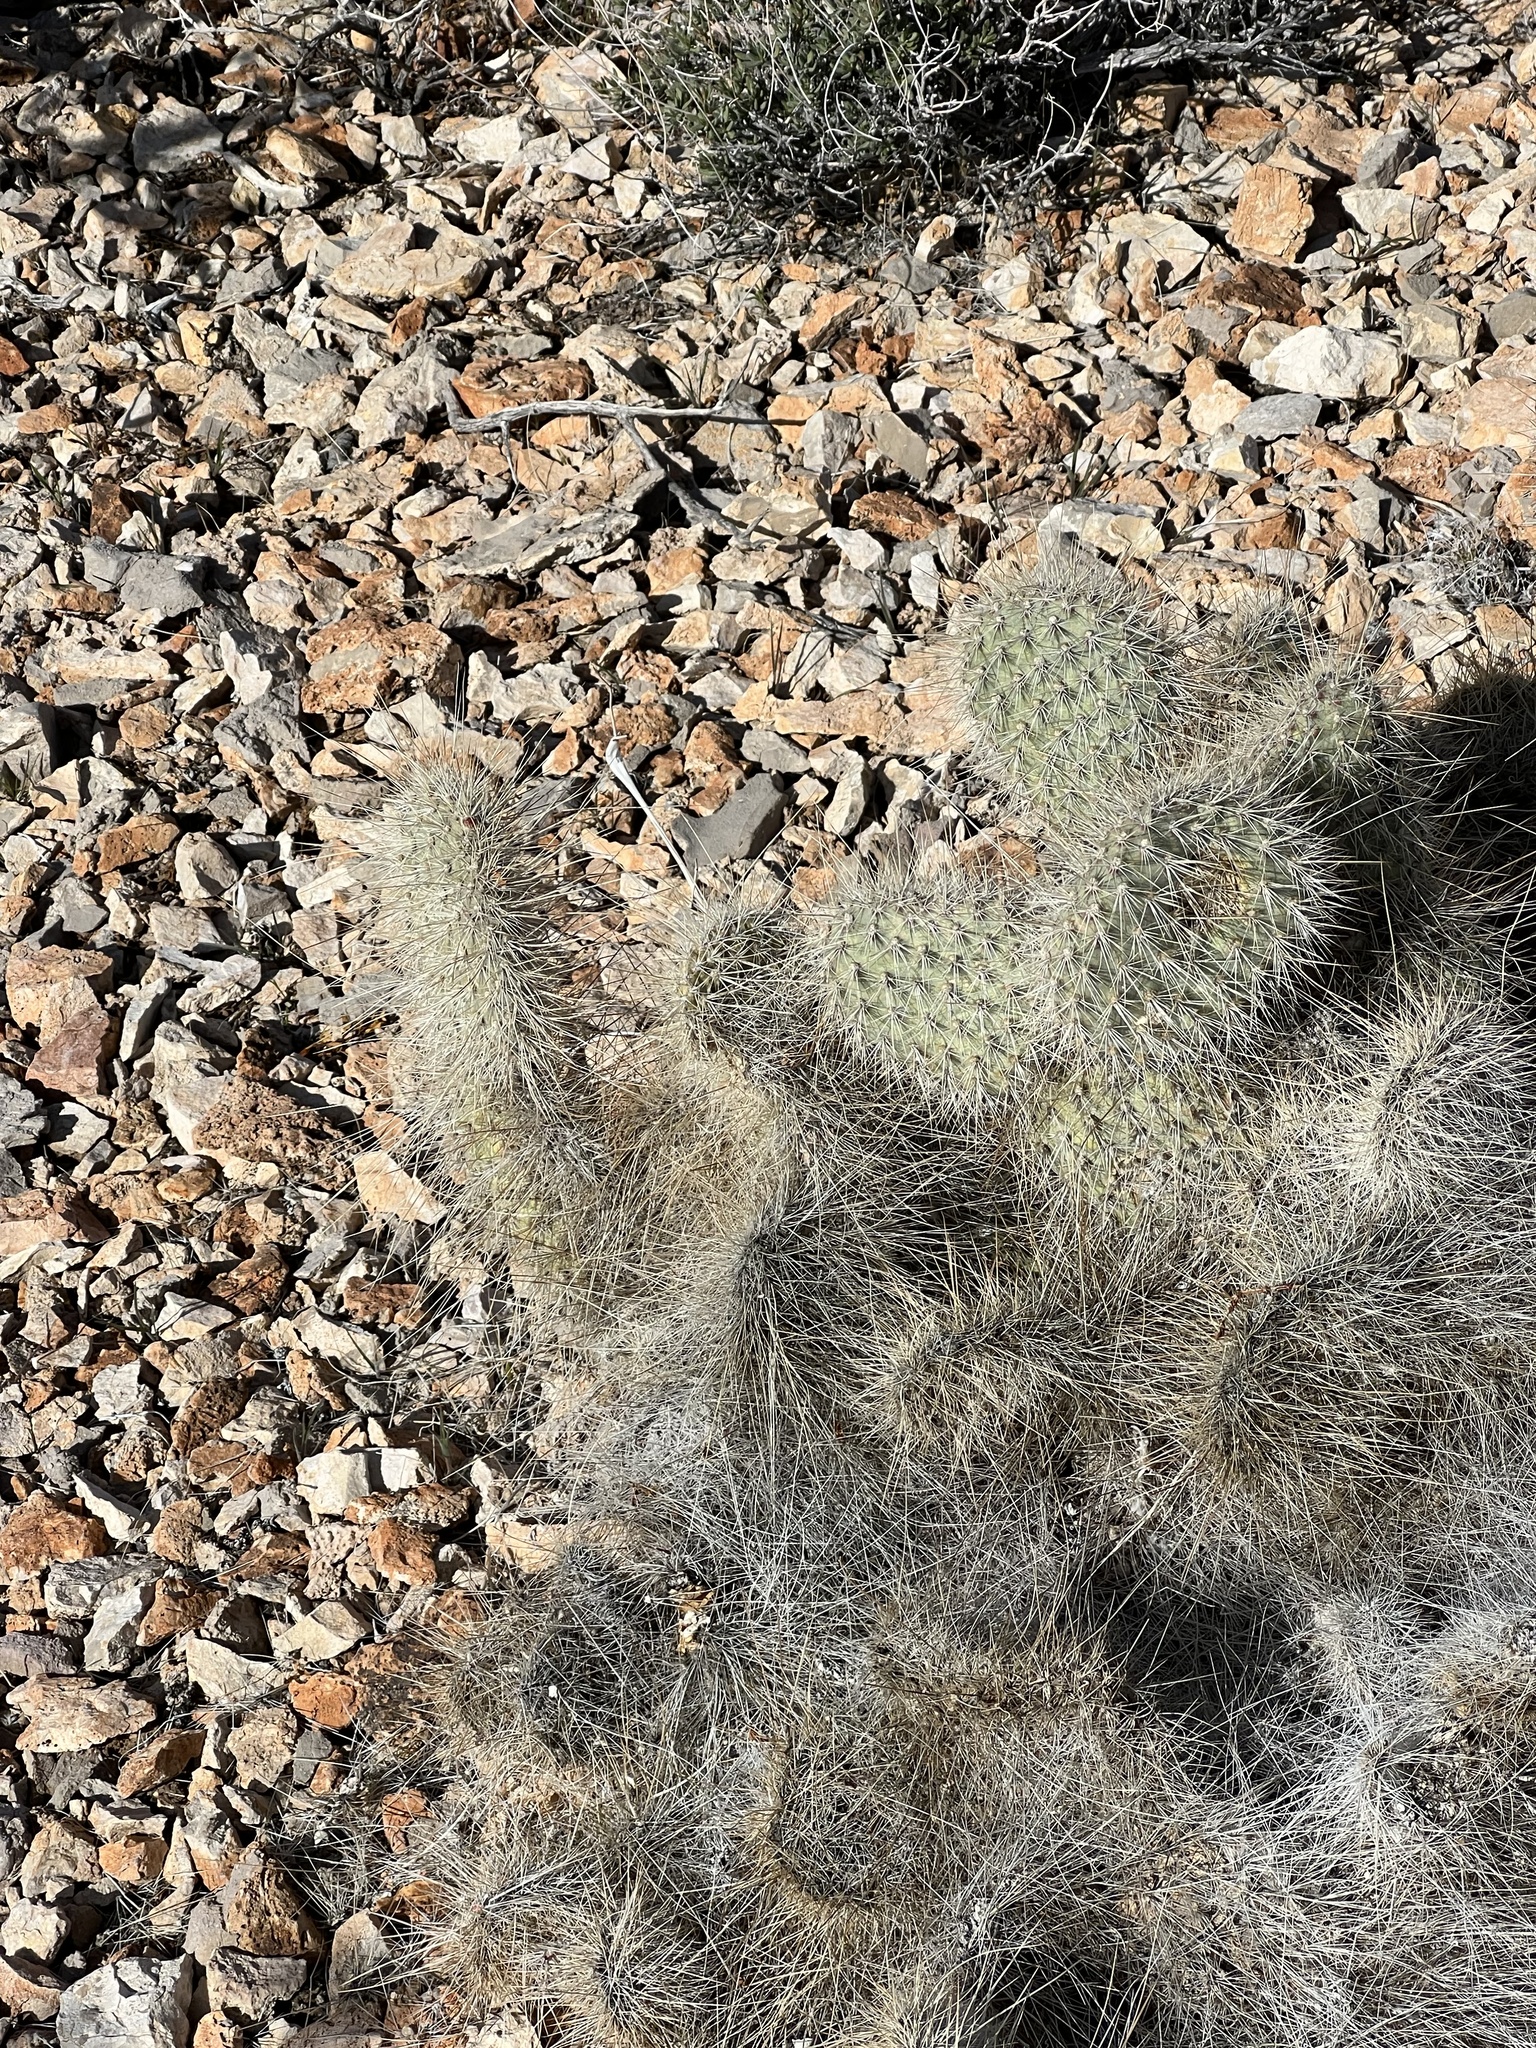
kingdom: Plantae
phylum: Tracheophyta
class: Magnoliopsida
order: Caryophyllales
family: Cactaceae
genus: Opuntia
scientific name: Opuntia polyacantha
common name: Plains prickly-pear
